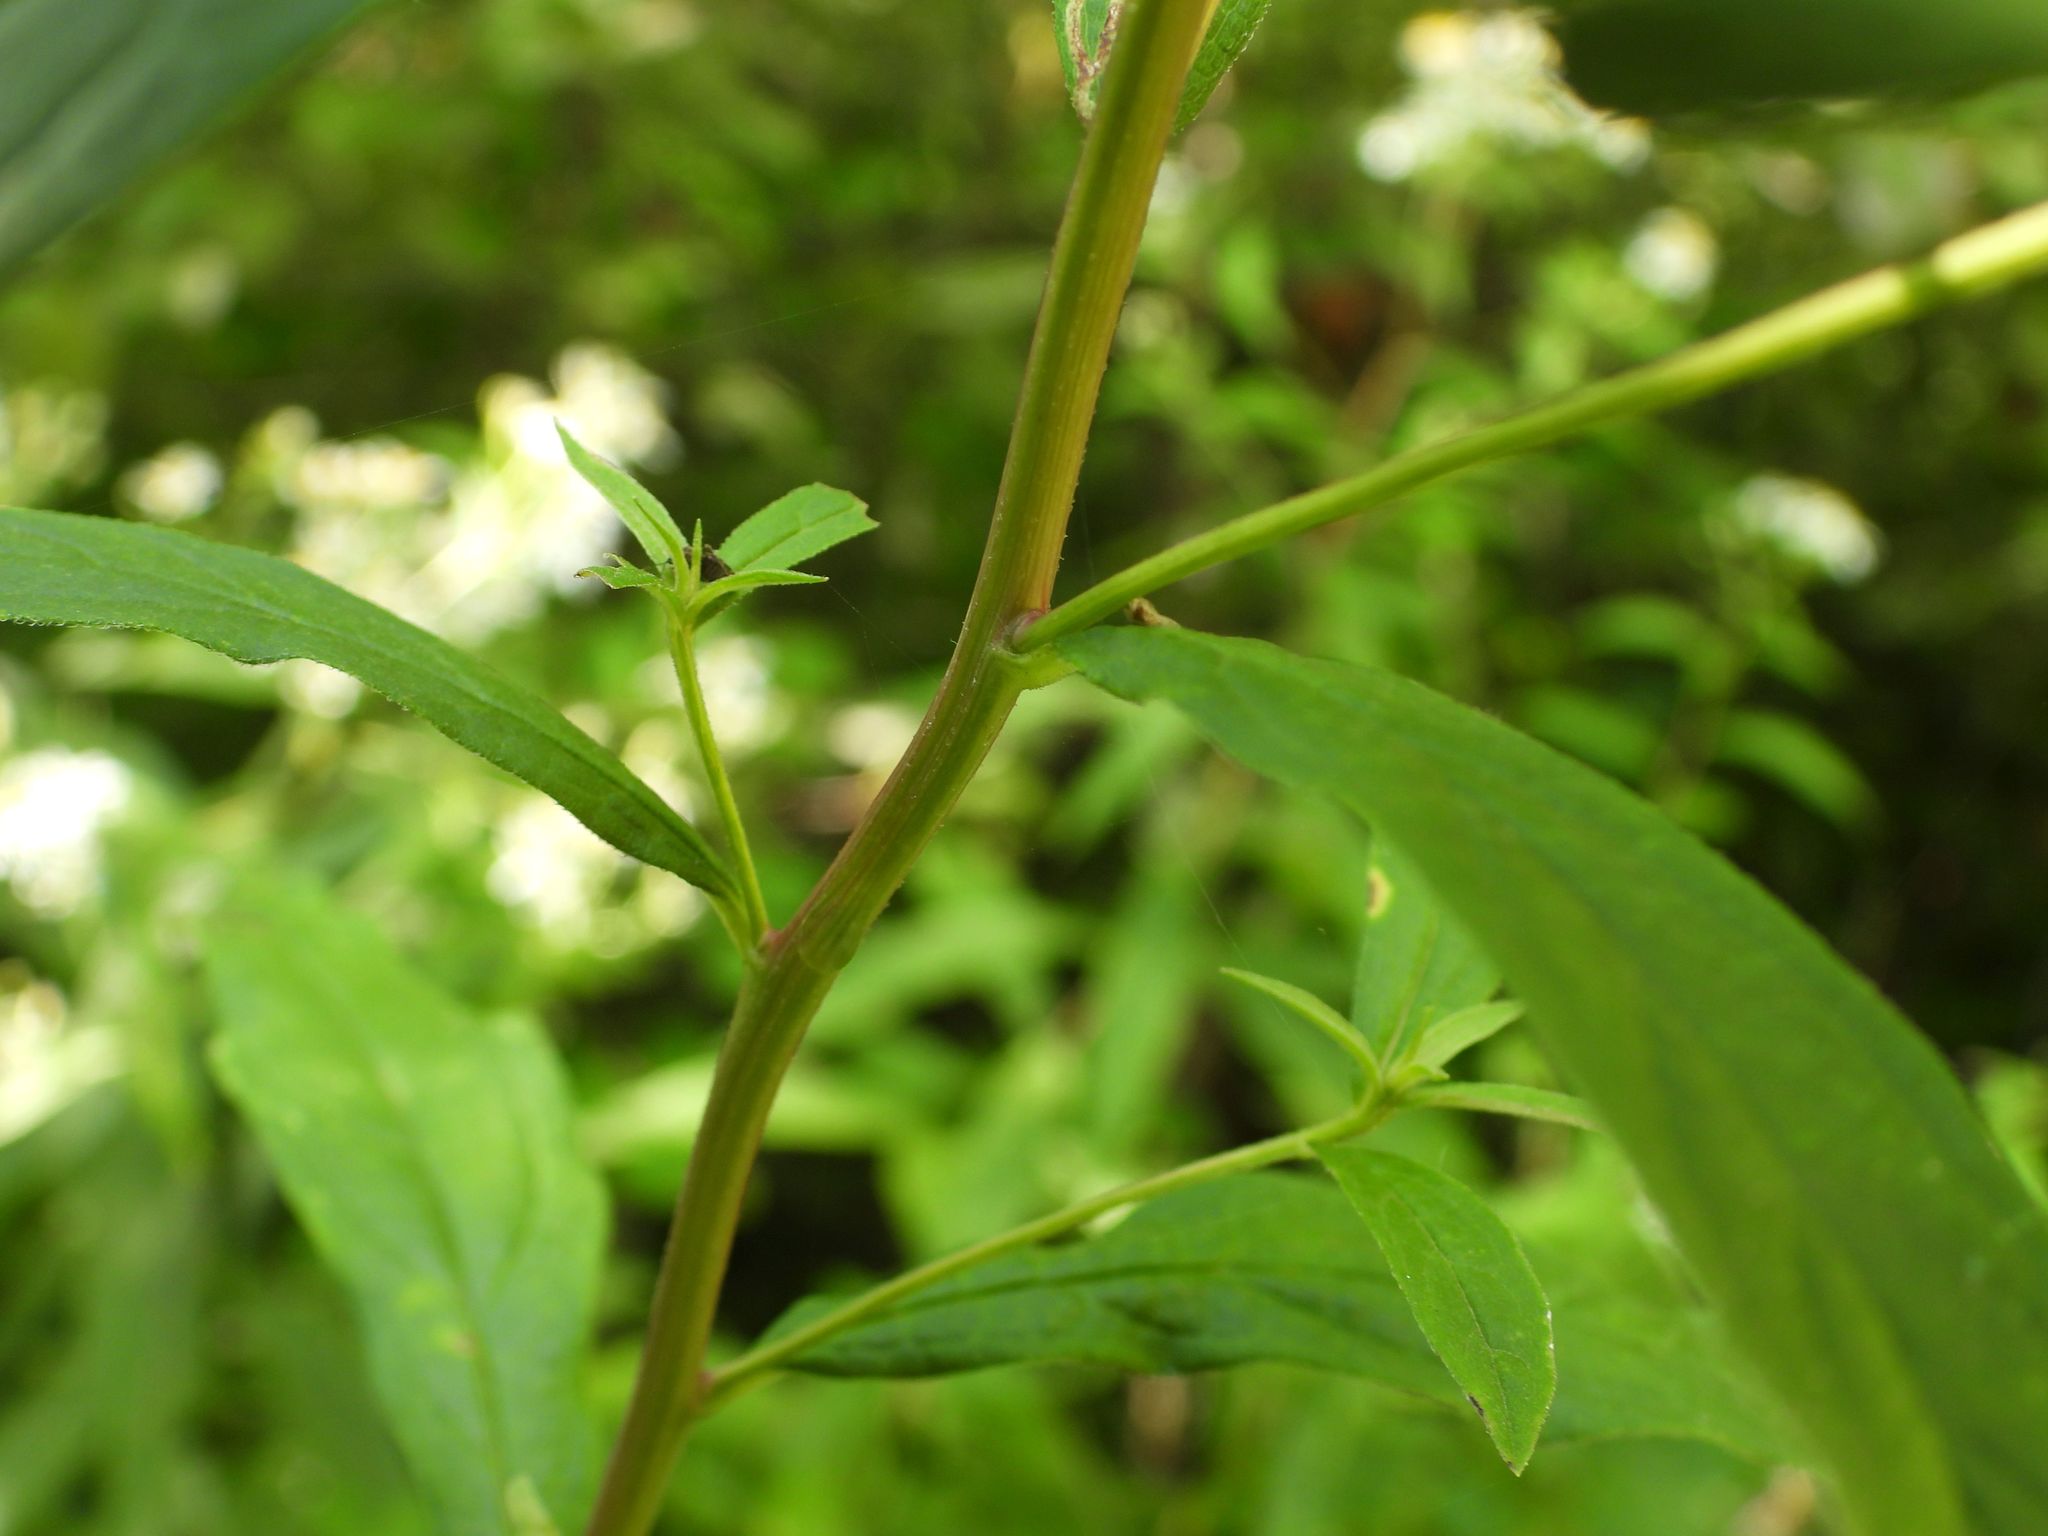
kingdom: Plantae
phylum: Tracheophyta
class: Magnoliopsida
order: Asterales
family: Asteraceae
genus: Doellingeria
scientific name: Doellingeria umbellata
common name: Flat-top white aster
